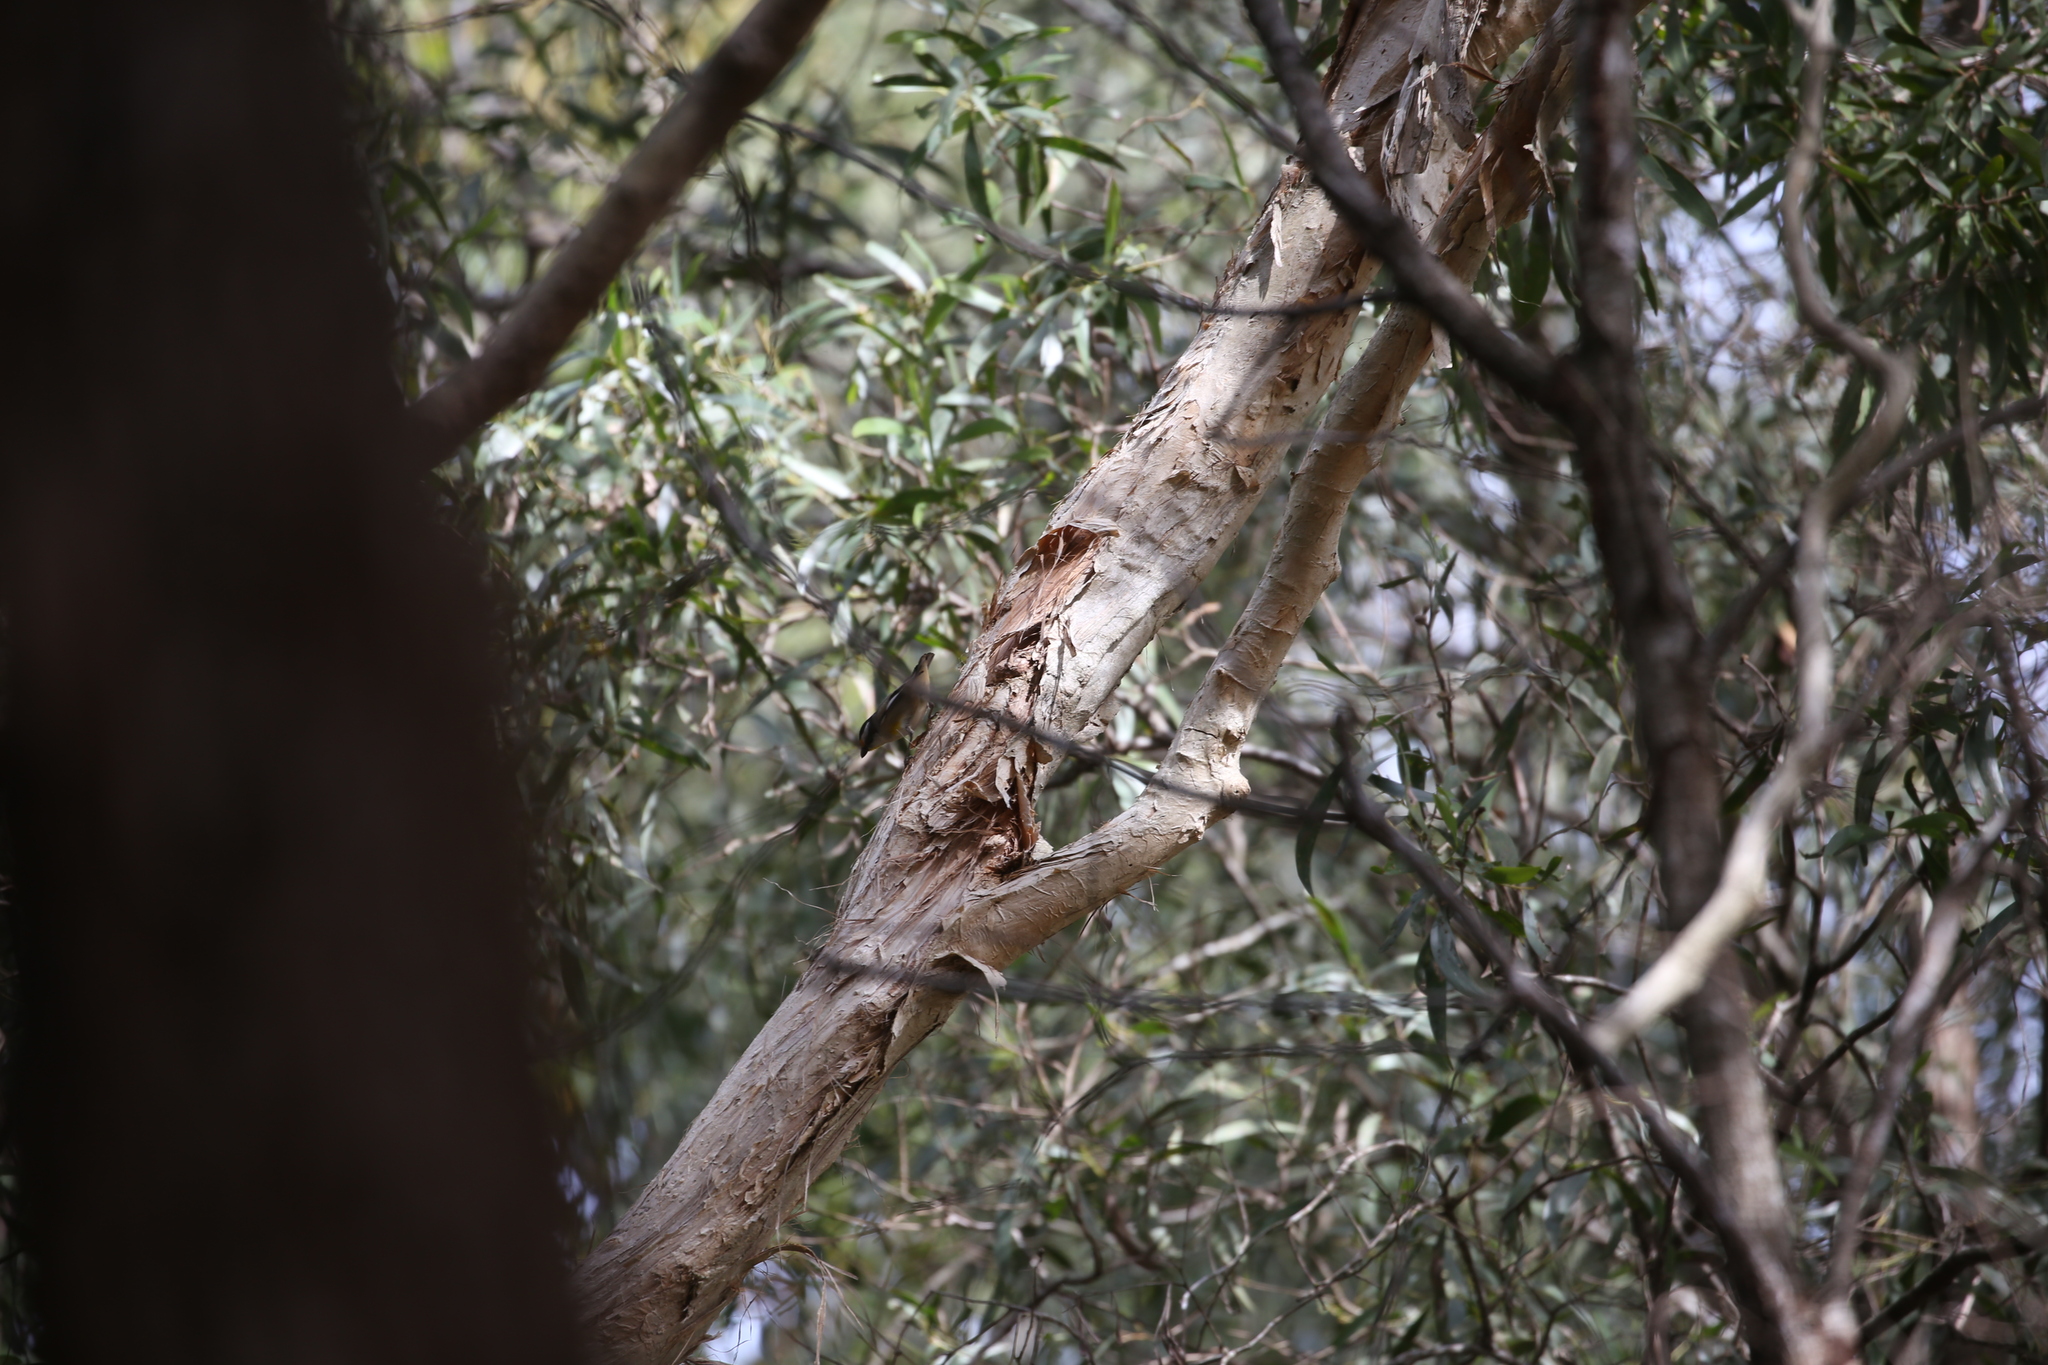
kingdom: Animalia
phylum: Chordata
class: Aves
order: Passeriformes
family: Pardalotidae
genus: Pardalotus
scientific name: Pardalotus striatus
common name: Striated pardalote
